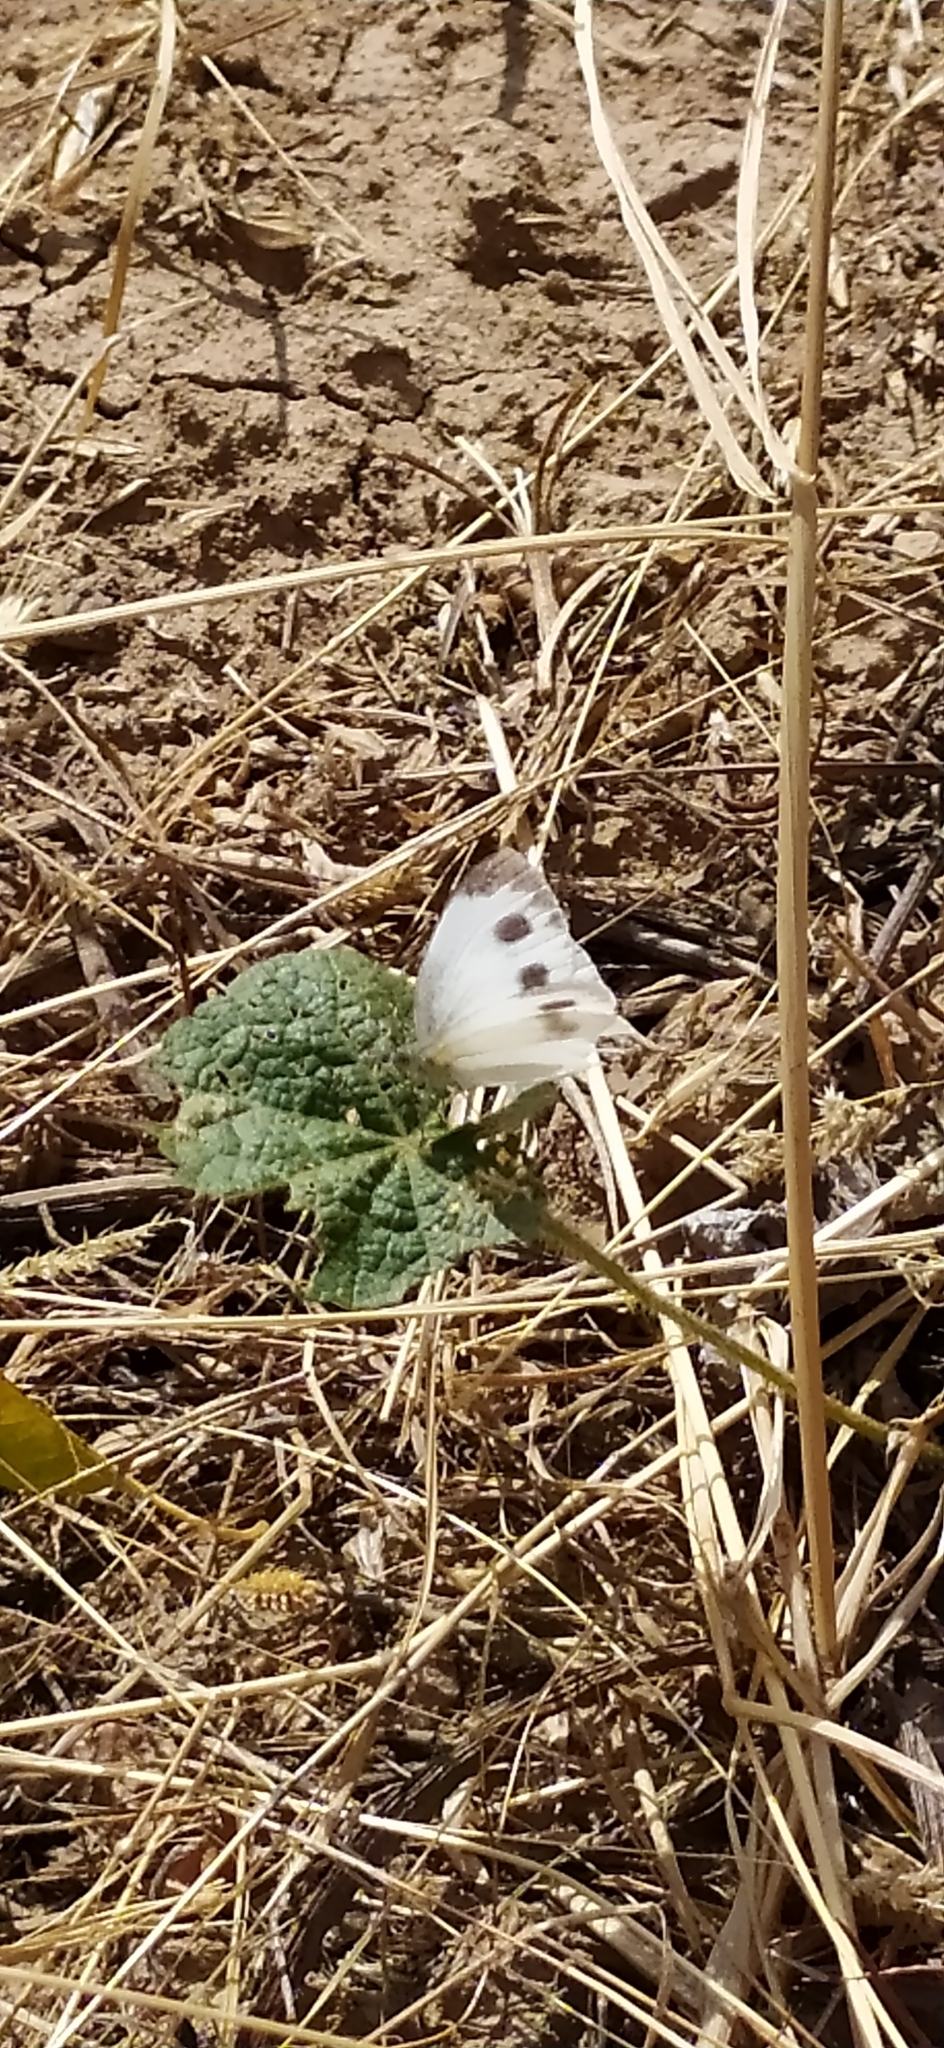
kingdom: Animalia
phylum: Arthropoda
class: Insecta
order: Lepidoptera
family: Pieridae
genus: Pieris
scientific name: Pieris canidia
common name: Indian cabbage white
